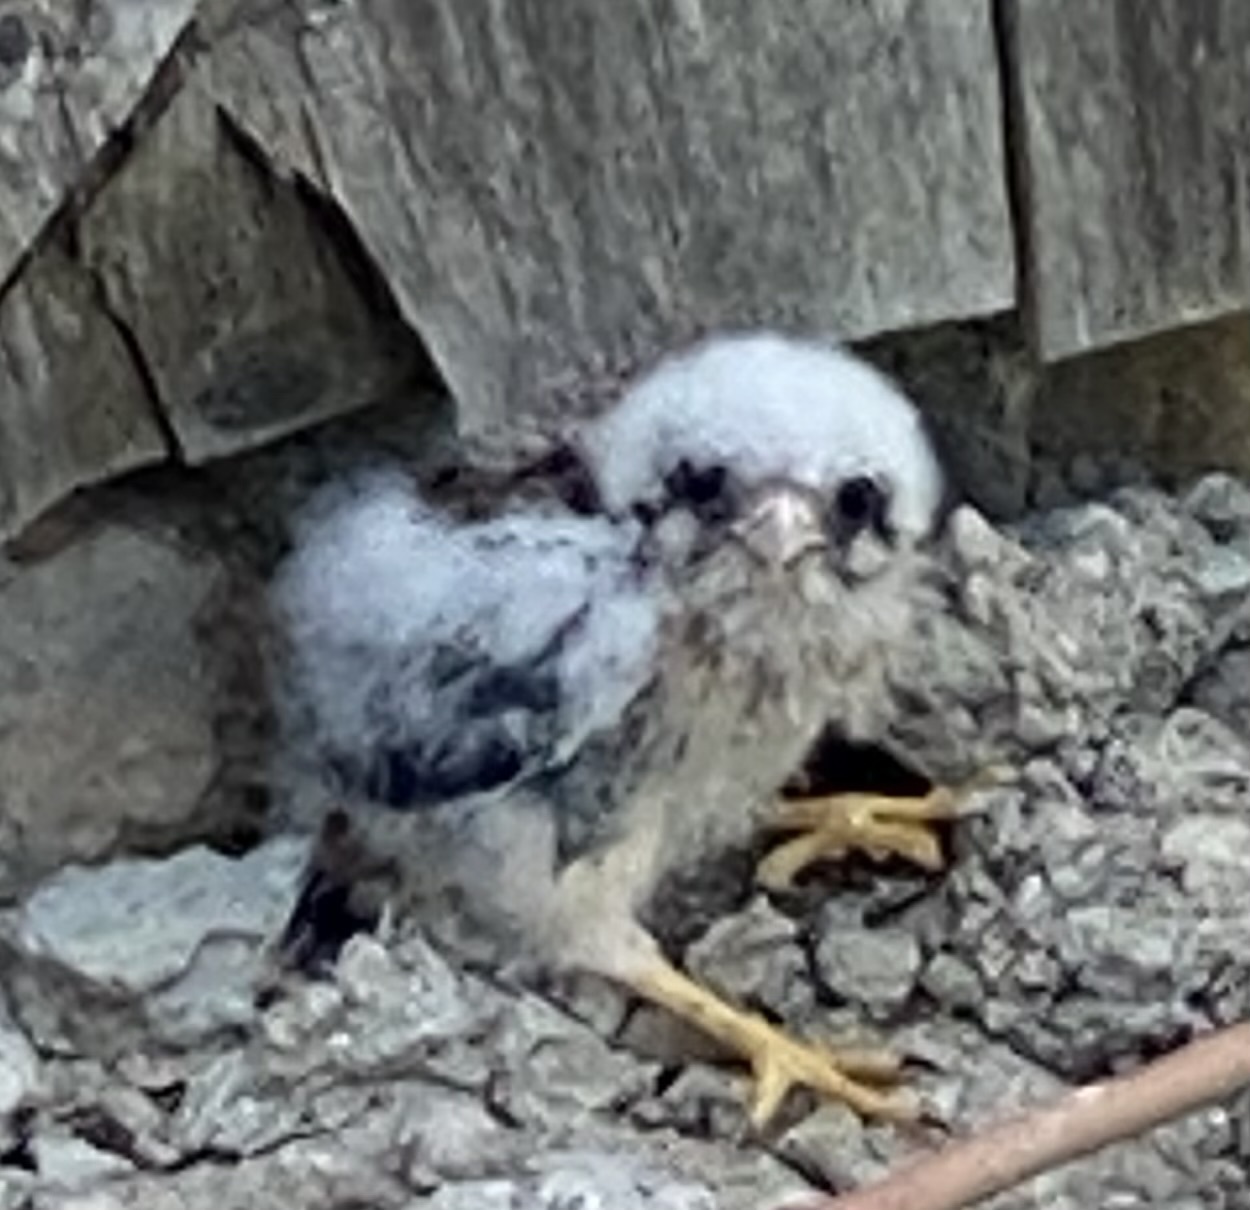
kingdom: Animalia
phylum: Chordata
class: Aves
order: Falconiformes
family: Falconidae
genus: Falco
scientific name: Falco sparverius
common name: American kestrel
